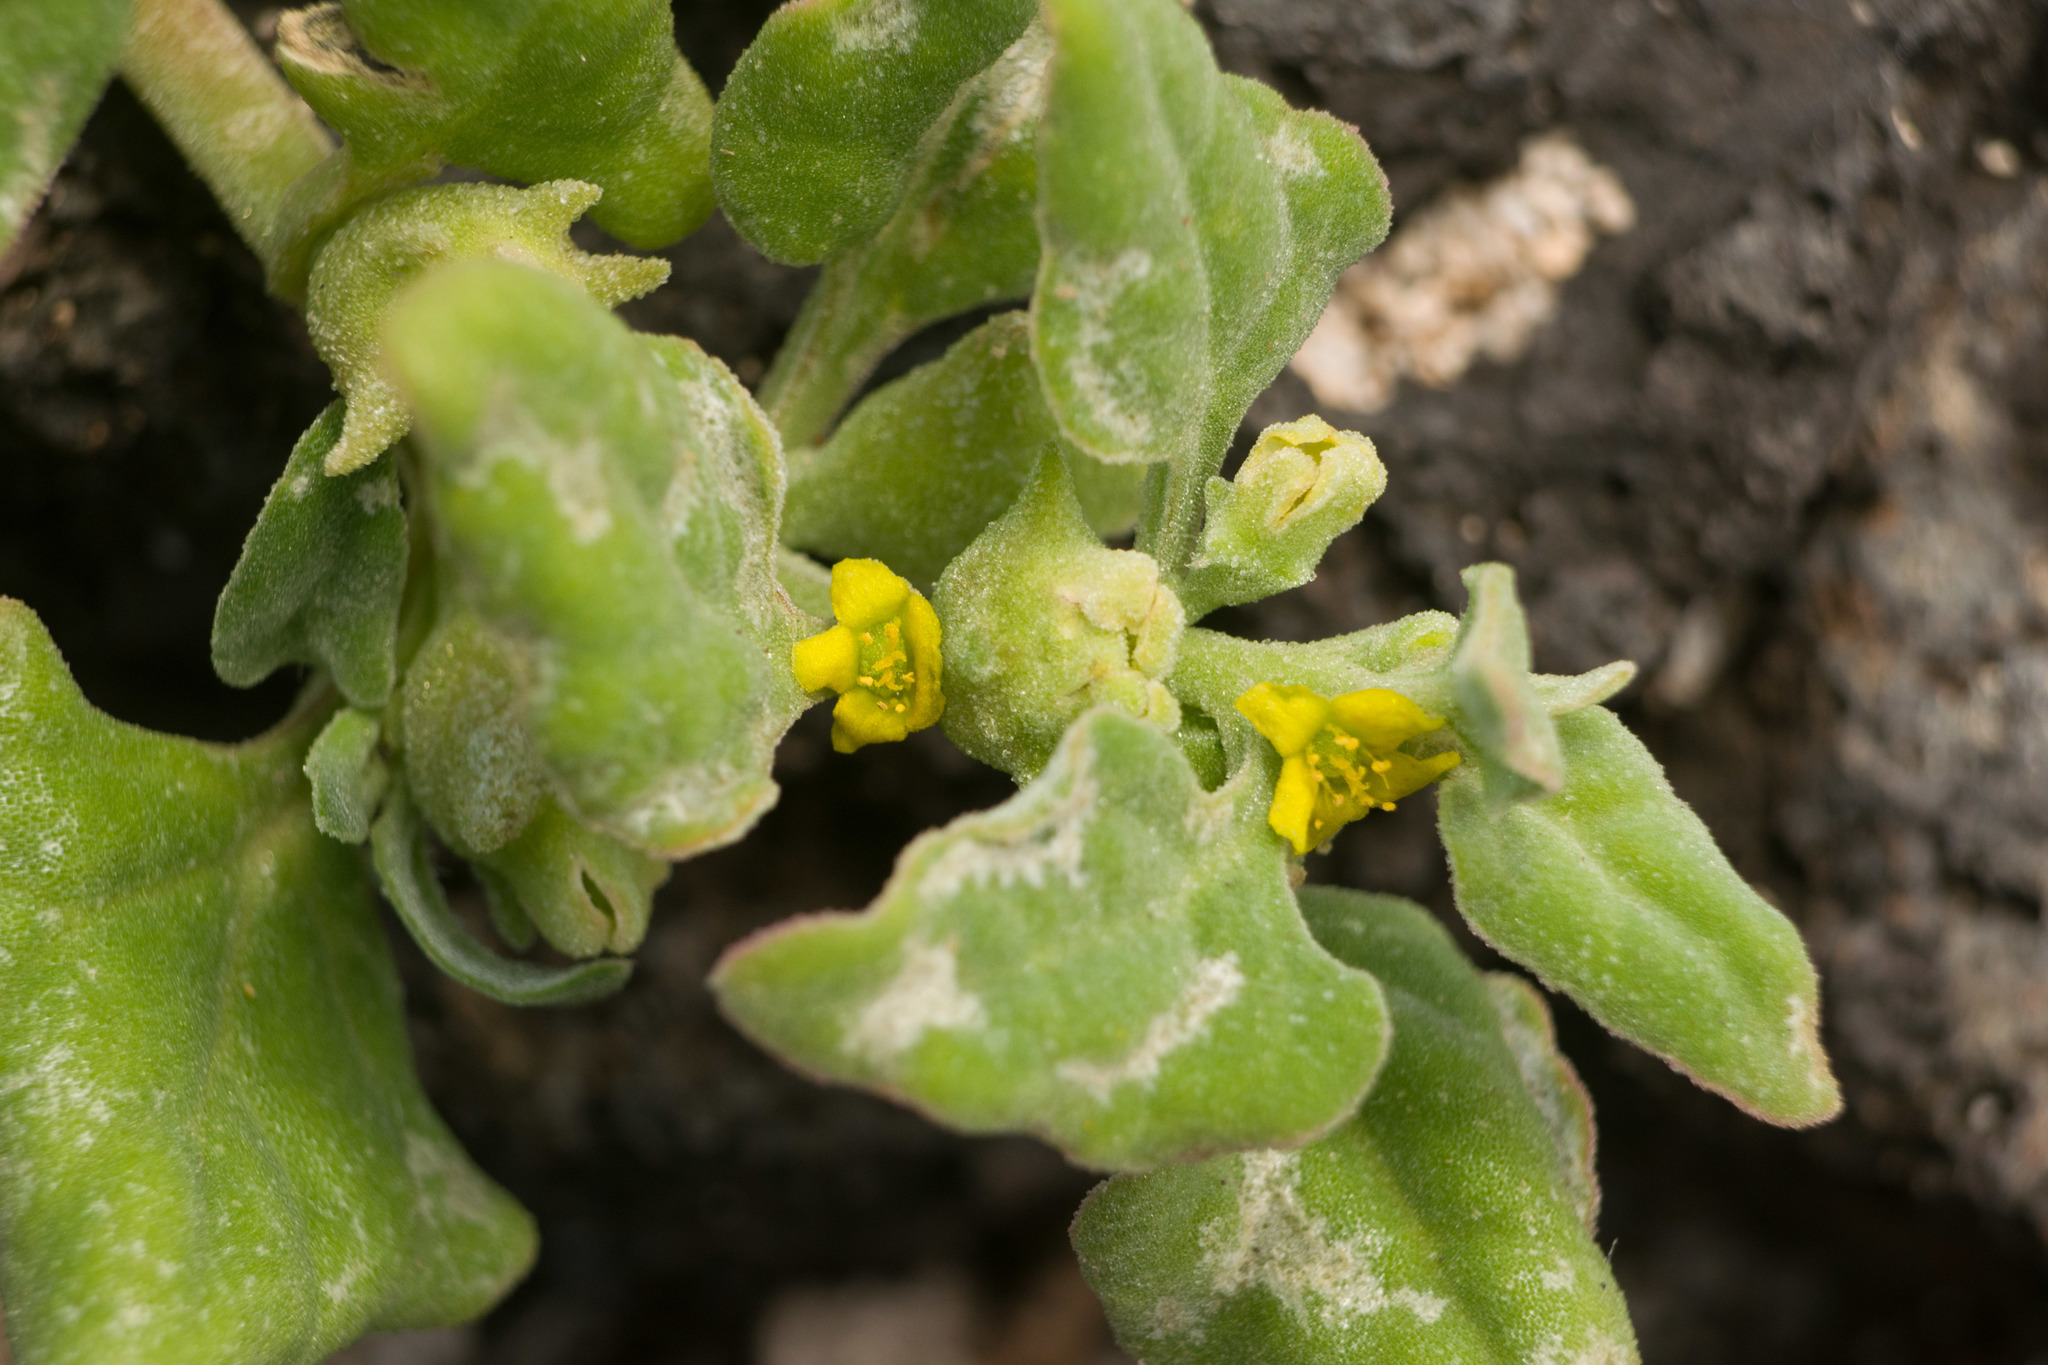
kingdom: Plantae
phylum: Tracheophyta
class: Magnoliopsida
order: Caryophyllales
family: Aizoaceae
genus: Tetragonia
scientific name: Tetragonia tetragonoides
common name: New zealand-spinach
